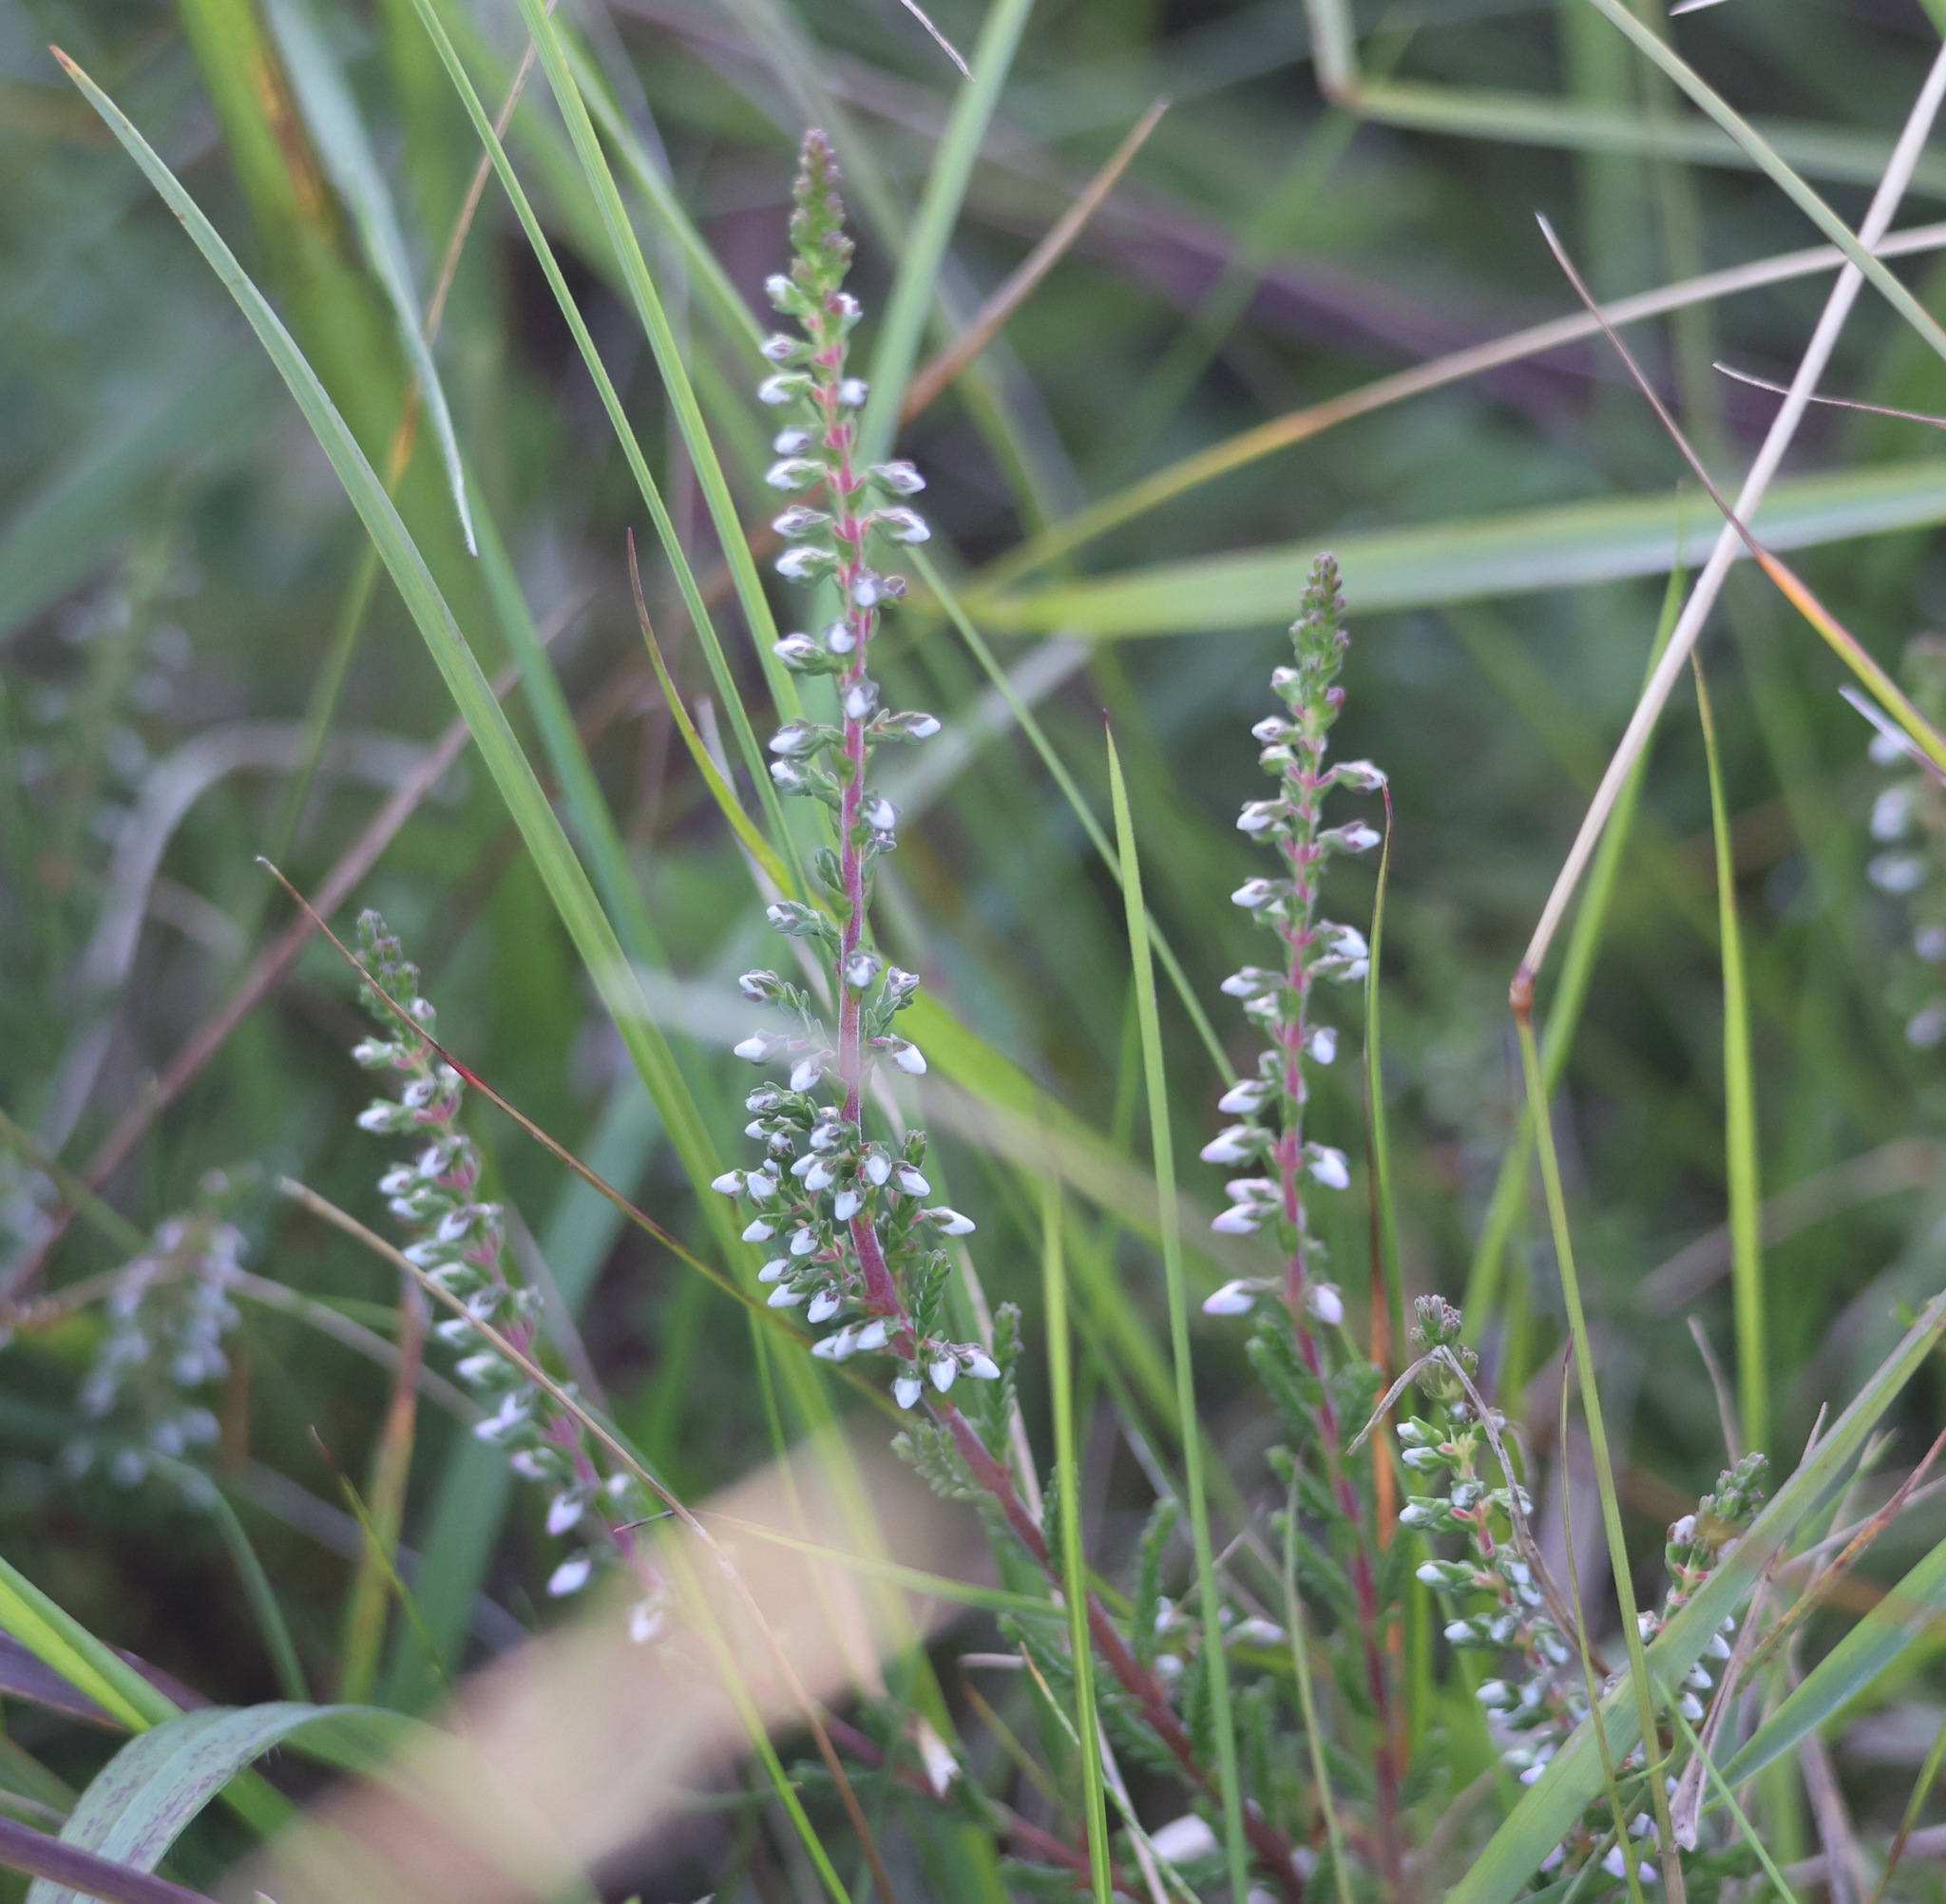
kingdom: Plantae
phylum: Tracheophyta
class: Magnoliopsida
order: Ericales
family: Ericaceae
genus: Calluna
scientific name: Calluna vulgaris
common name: Heather
